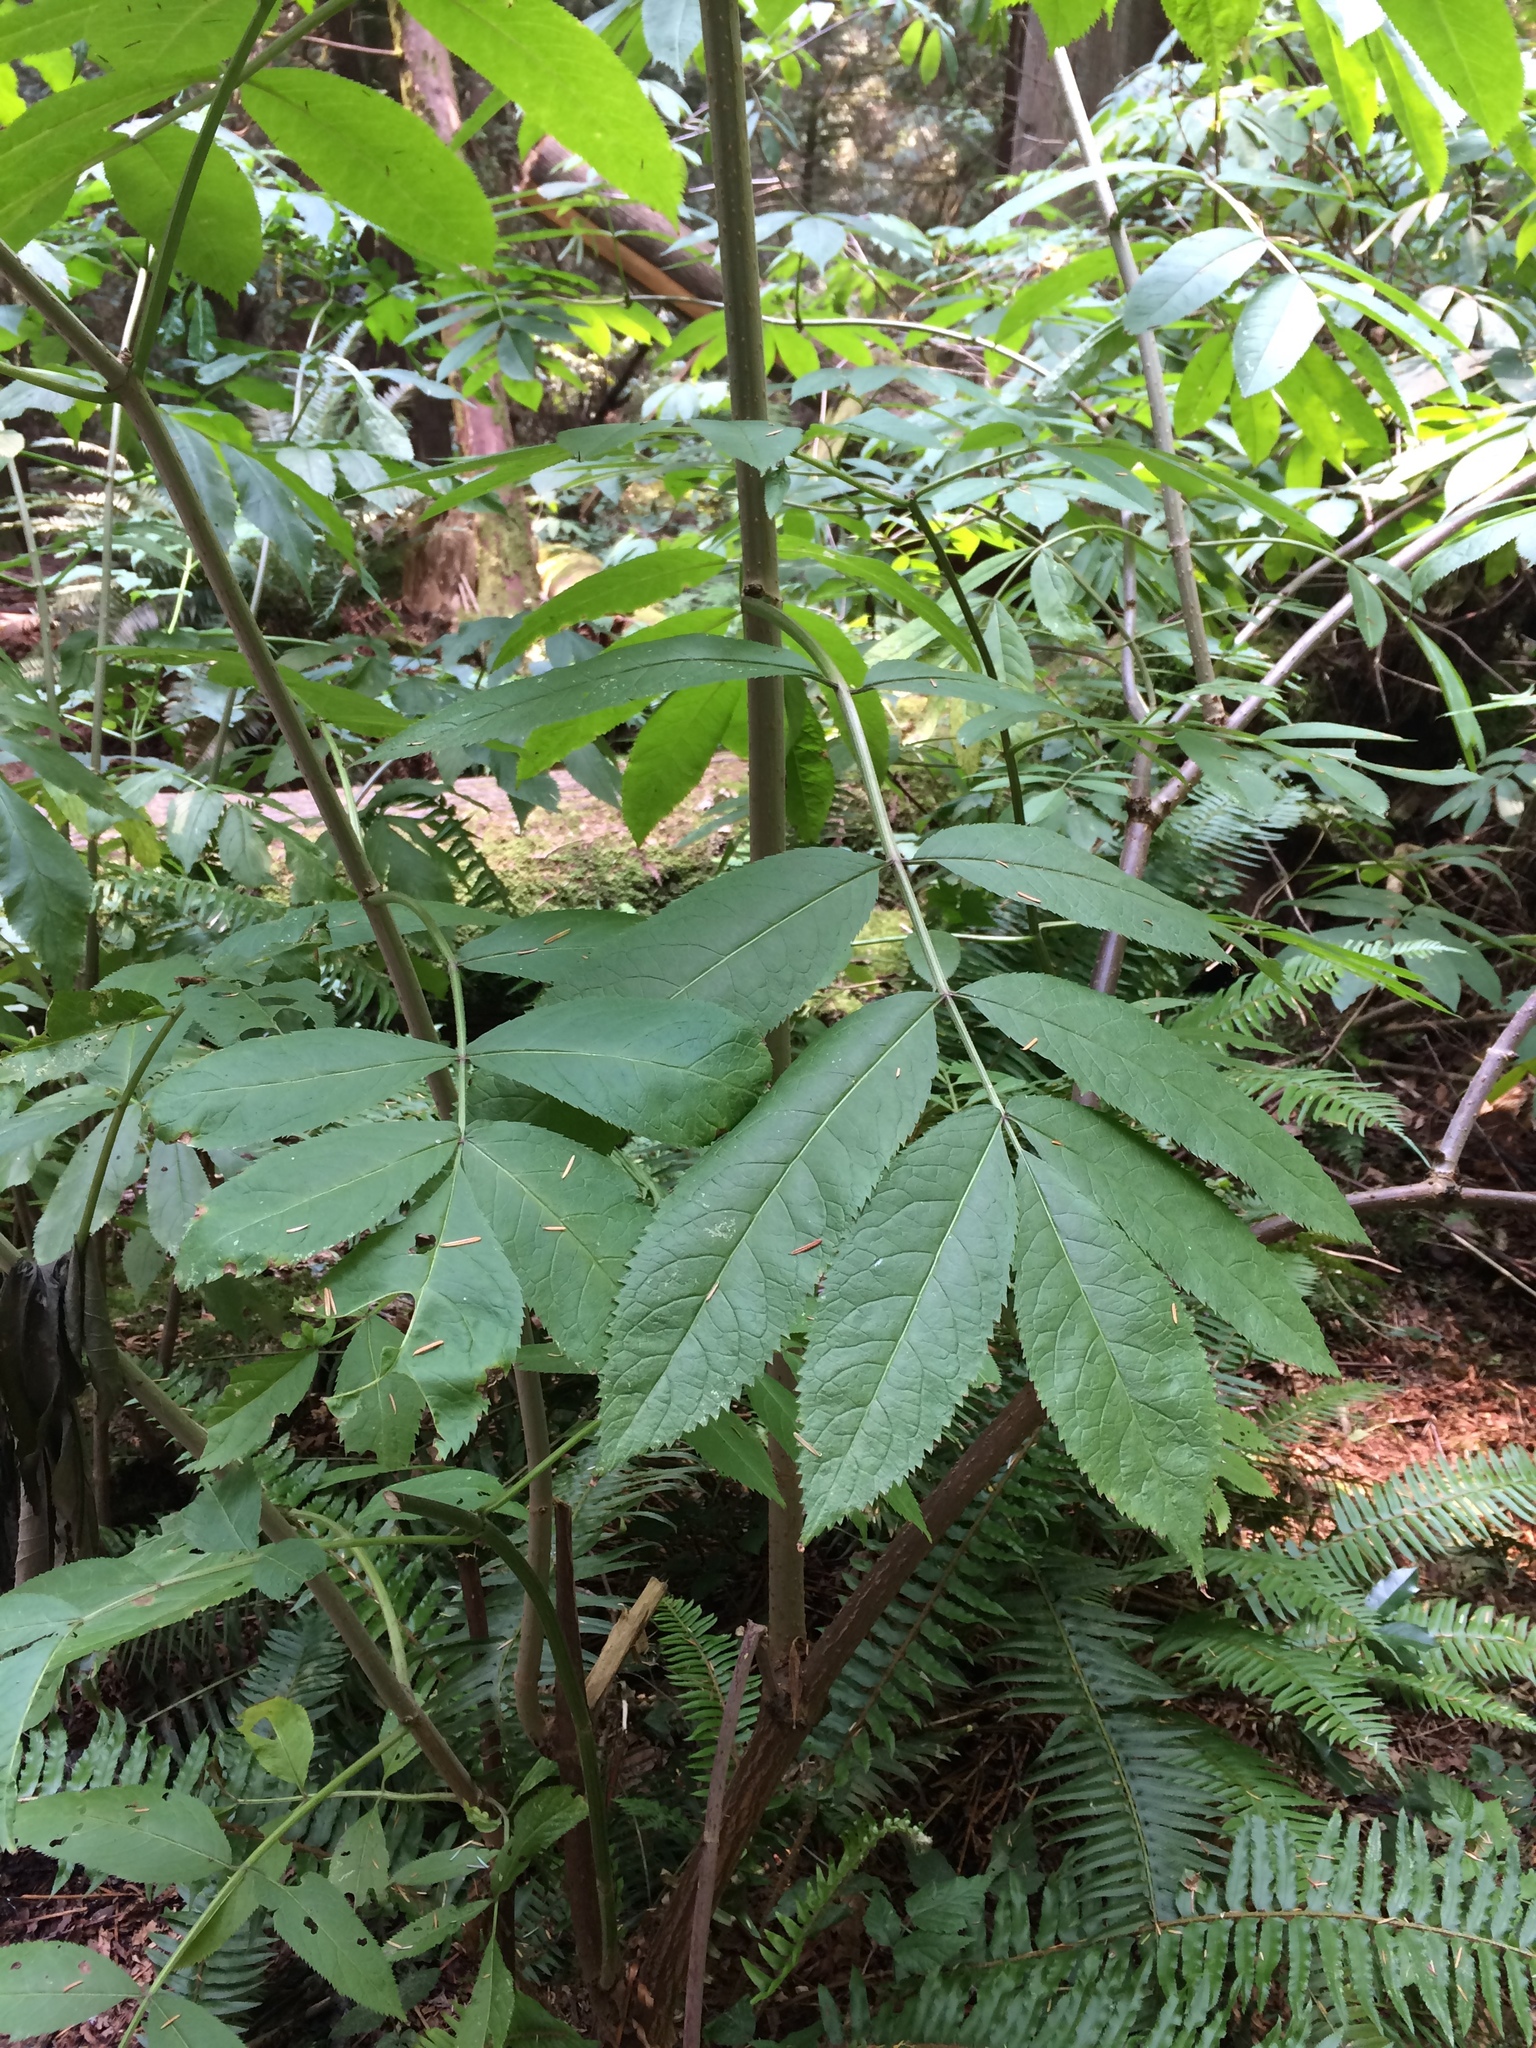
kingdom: Plantae
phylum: Tracheophyta
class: Magnoliopsida
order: Dipsacales
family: Viburnaceae
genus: Sambucus
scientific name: Sambucus racemosa
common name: Red-berried elder
